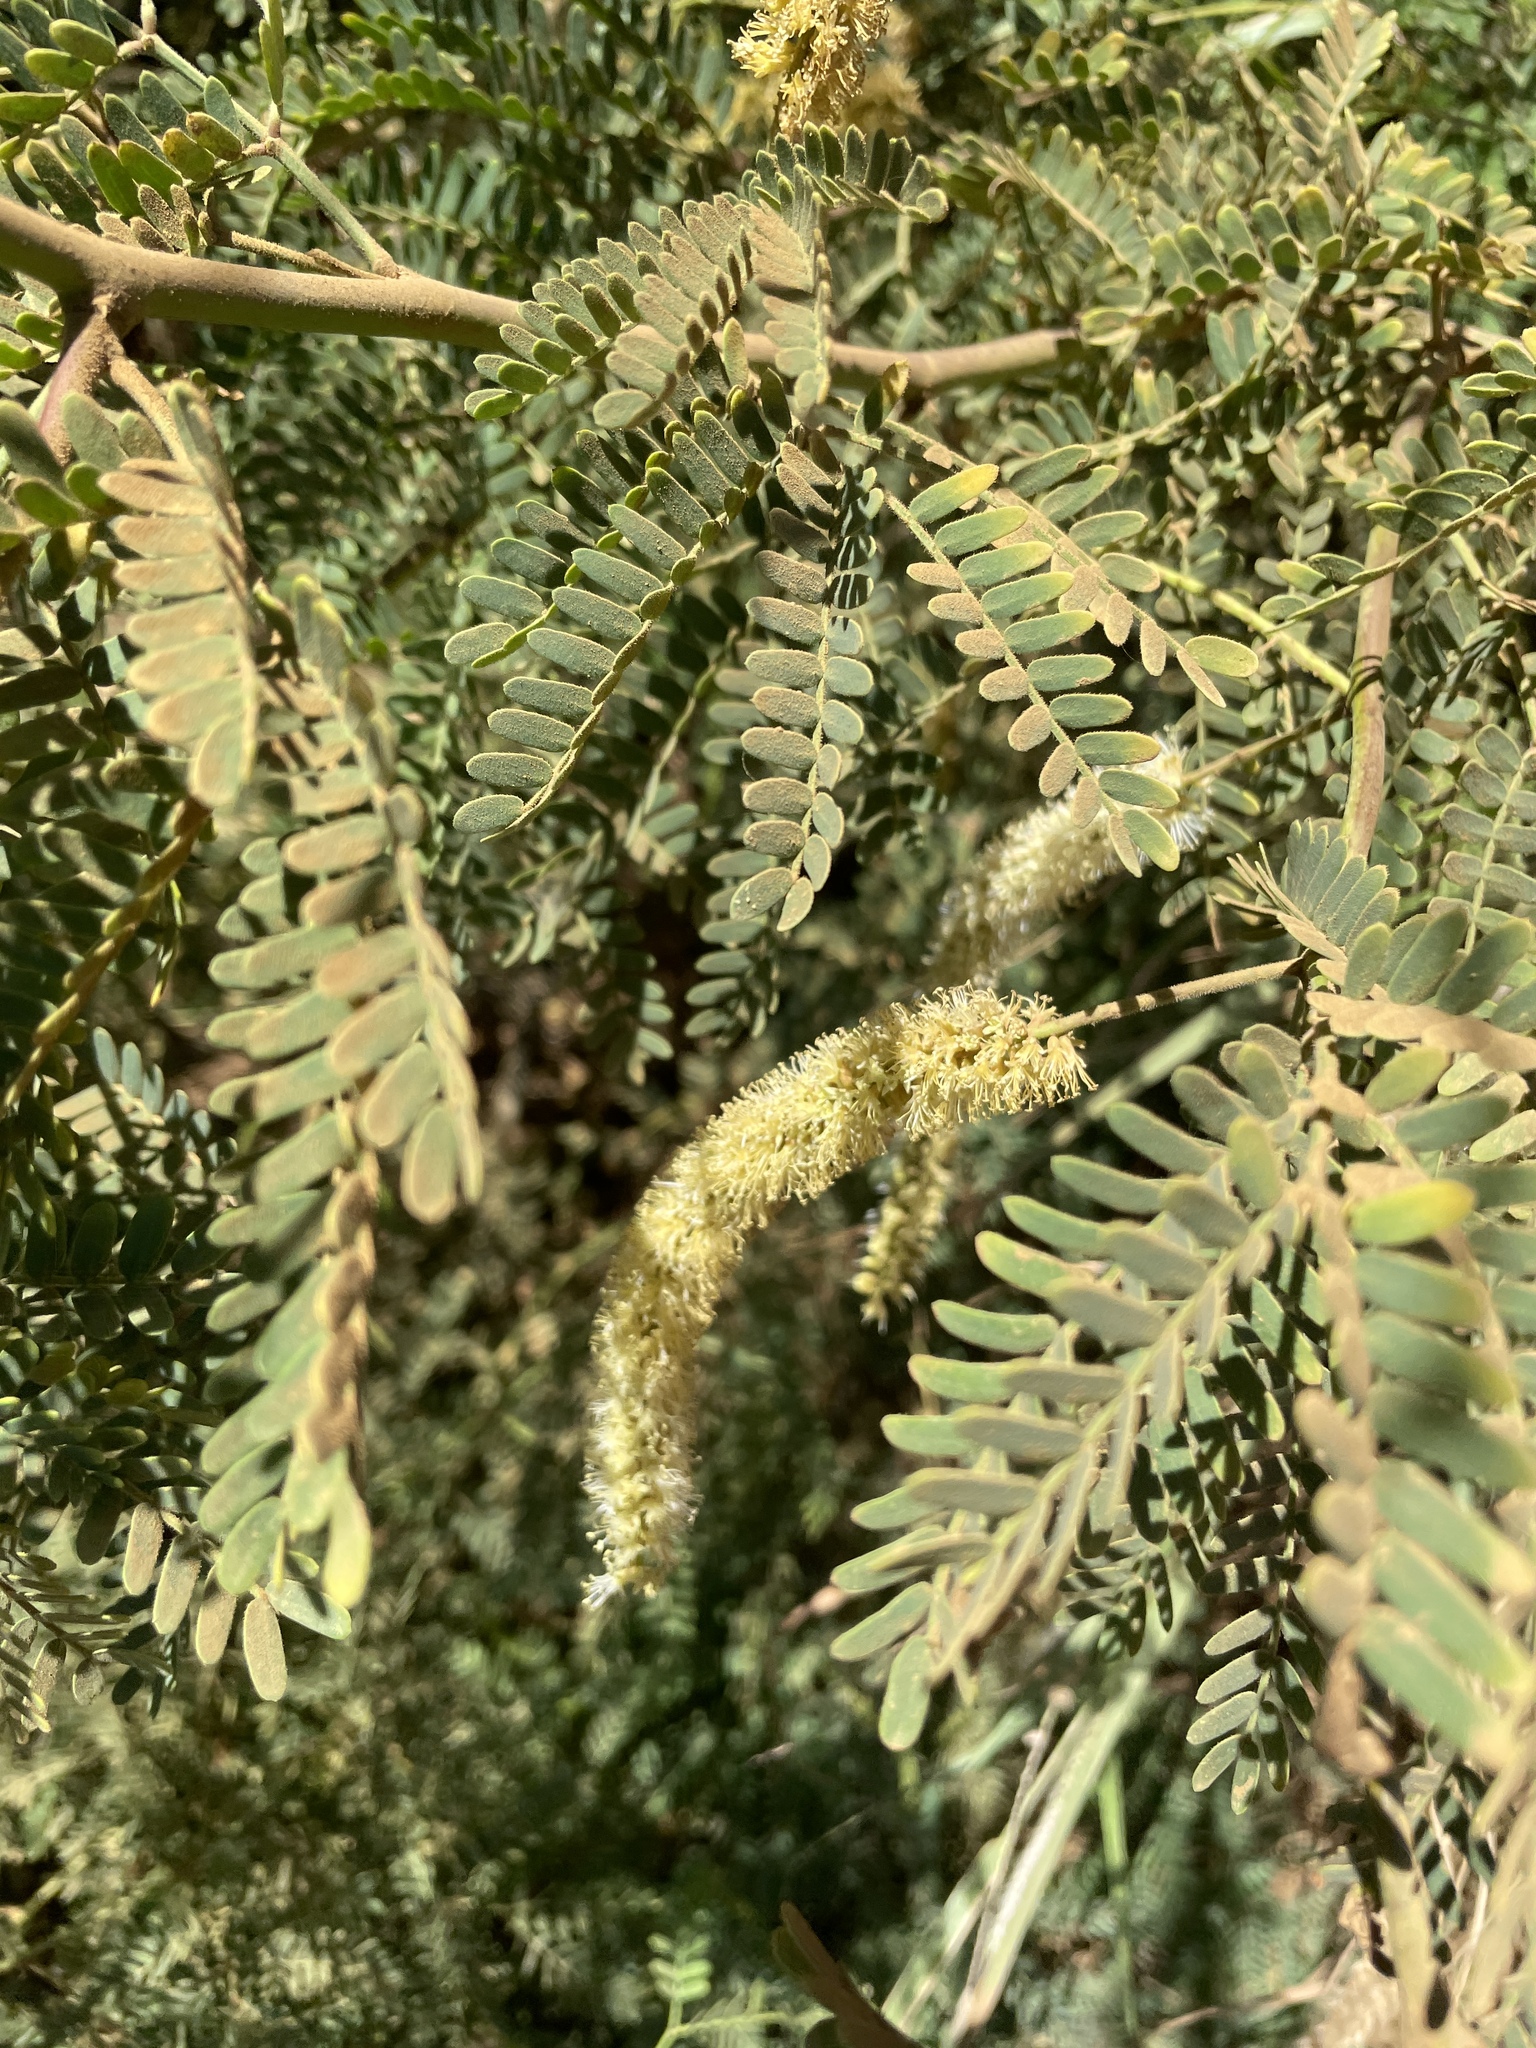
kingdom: Plantae
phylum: Tracheophyta
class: Magnoliopsida
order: Fabales
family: Fabaceae
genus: Prosopis
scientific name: Prosopis pallida
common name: Mesquite
